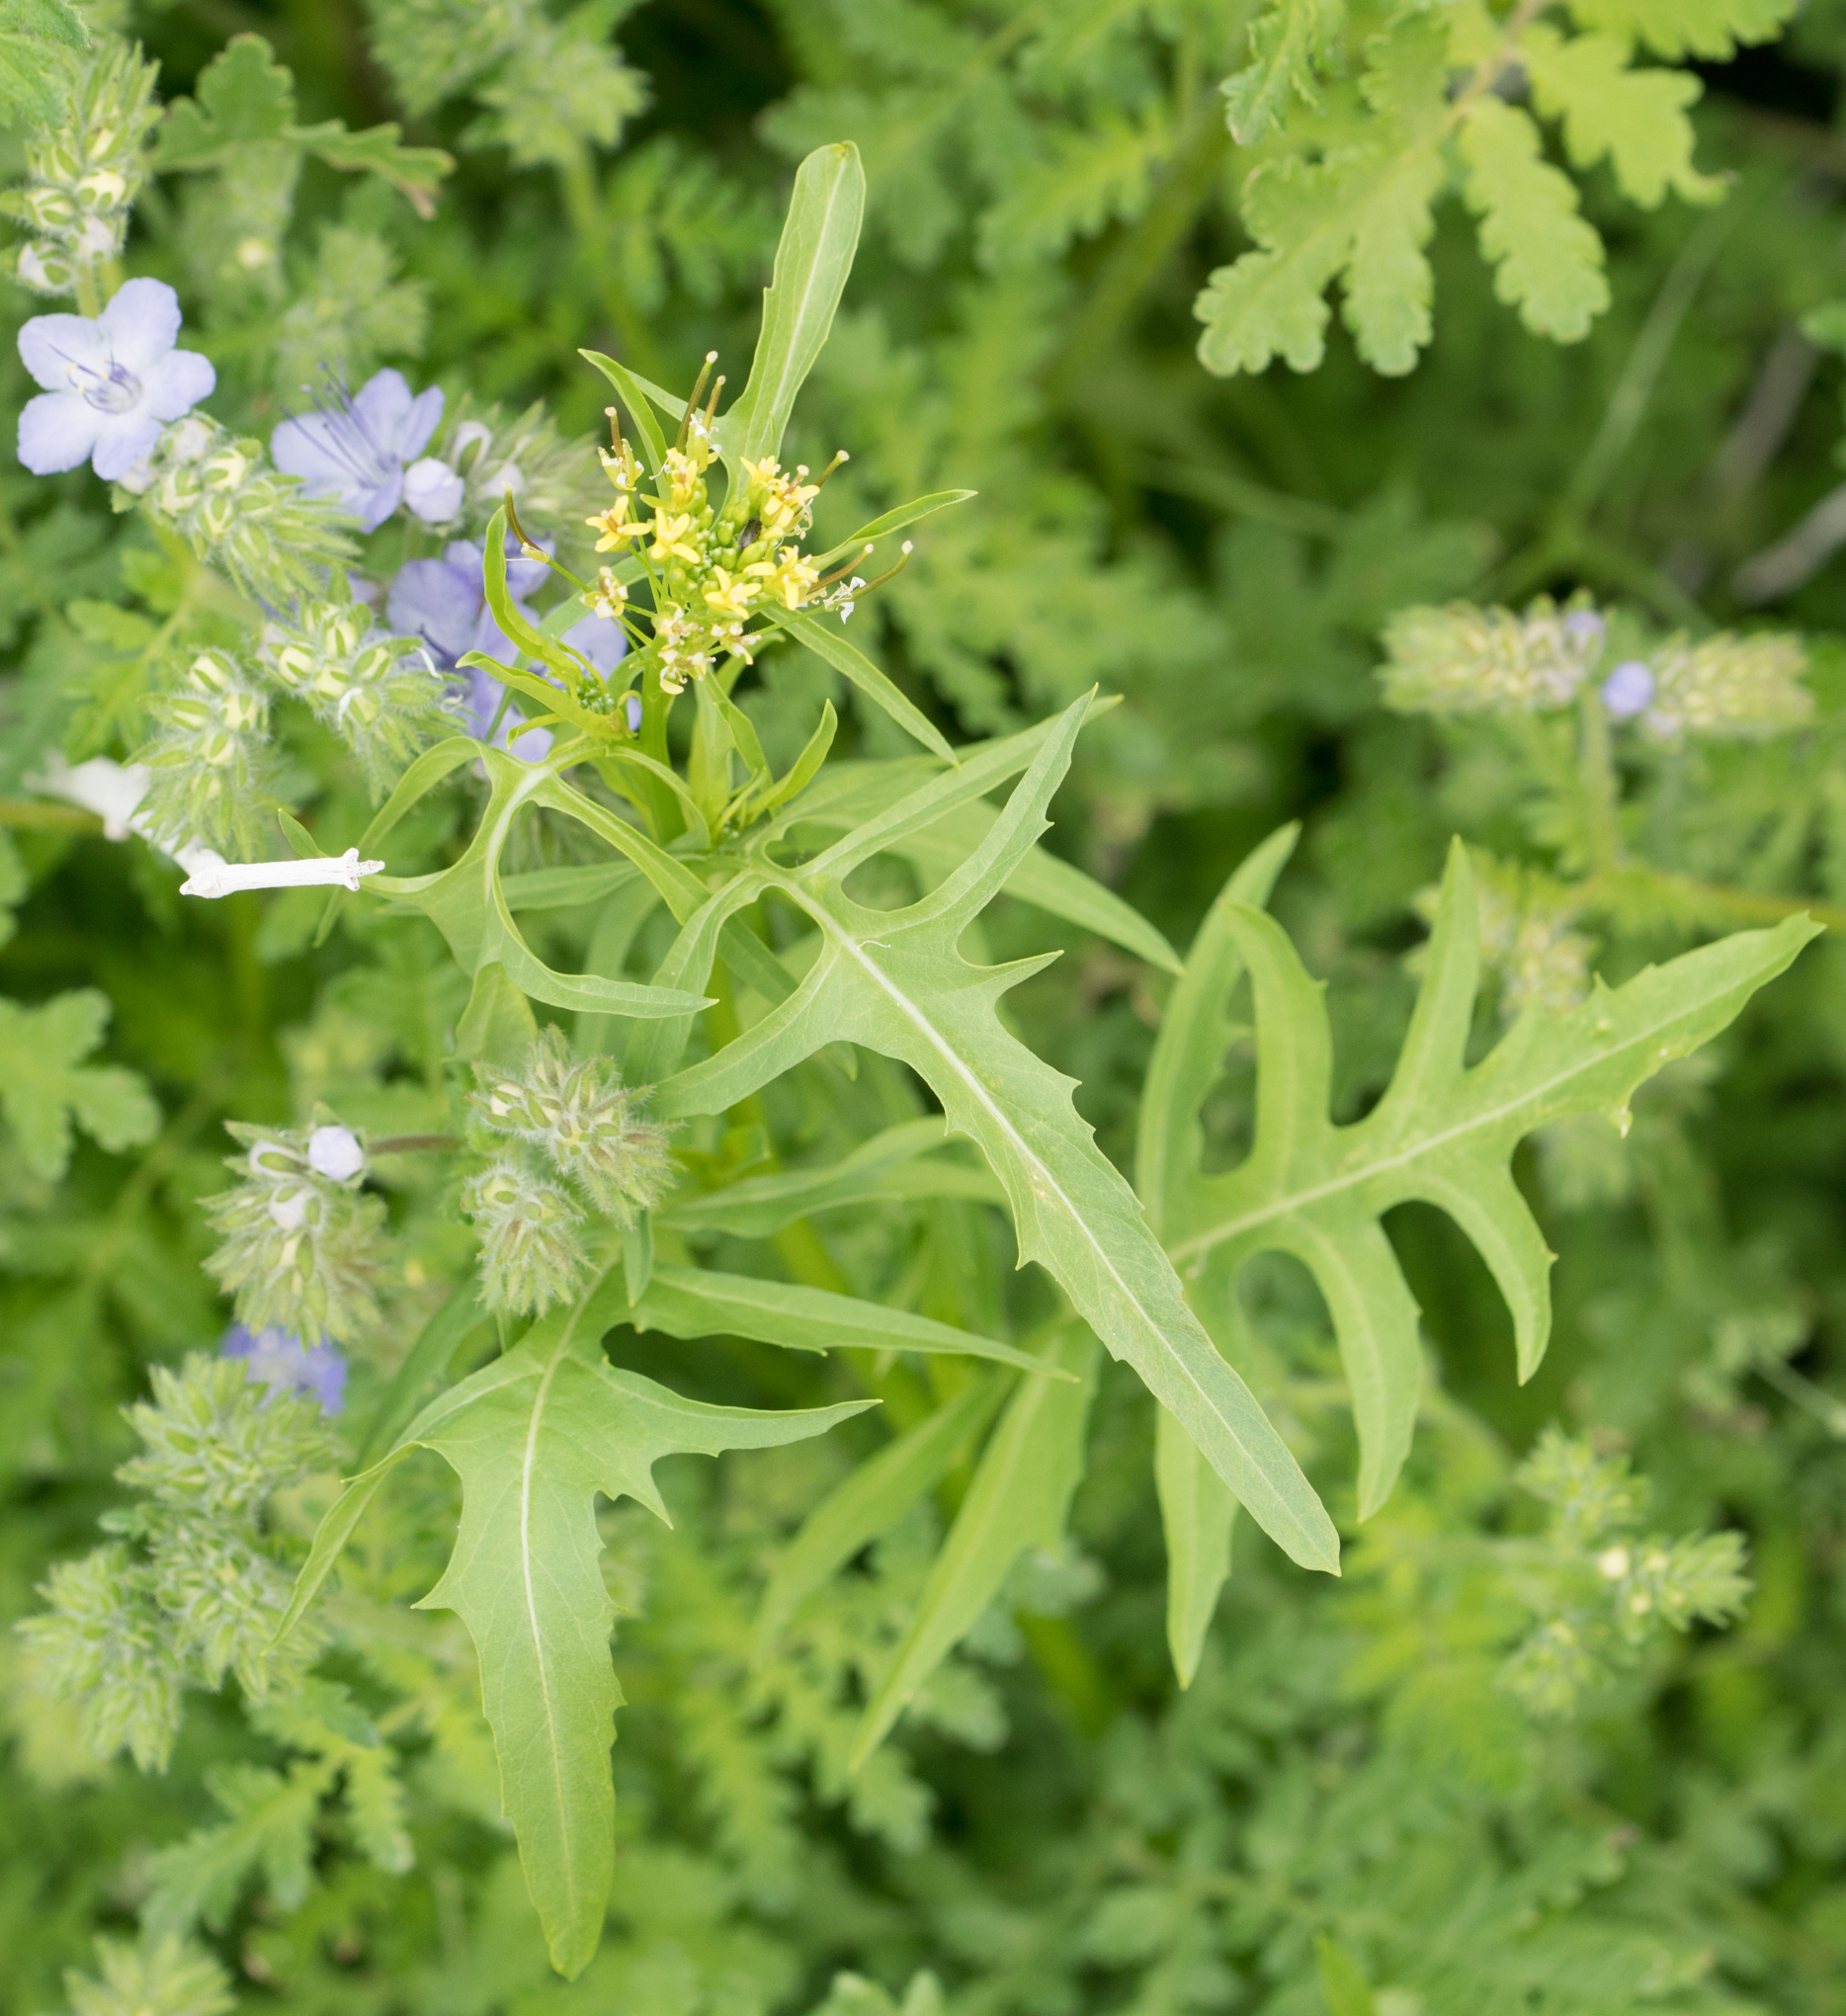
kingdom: Plantae
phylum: Tracheophyta
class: Magnoliopsida
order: Brassicales
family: Brassicaceae
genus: Sisymbrium
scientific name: Sisymbrium irio
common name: London rocket
